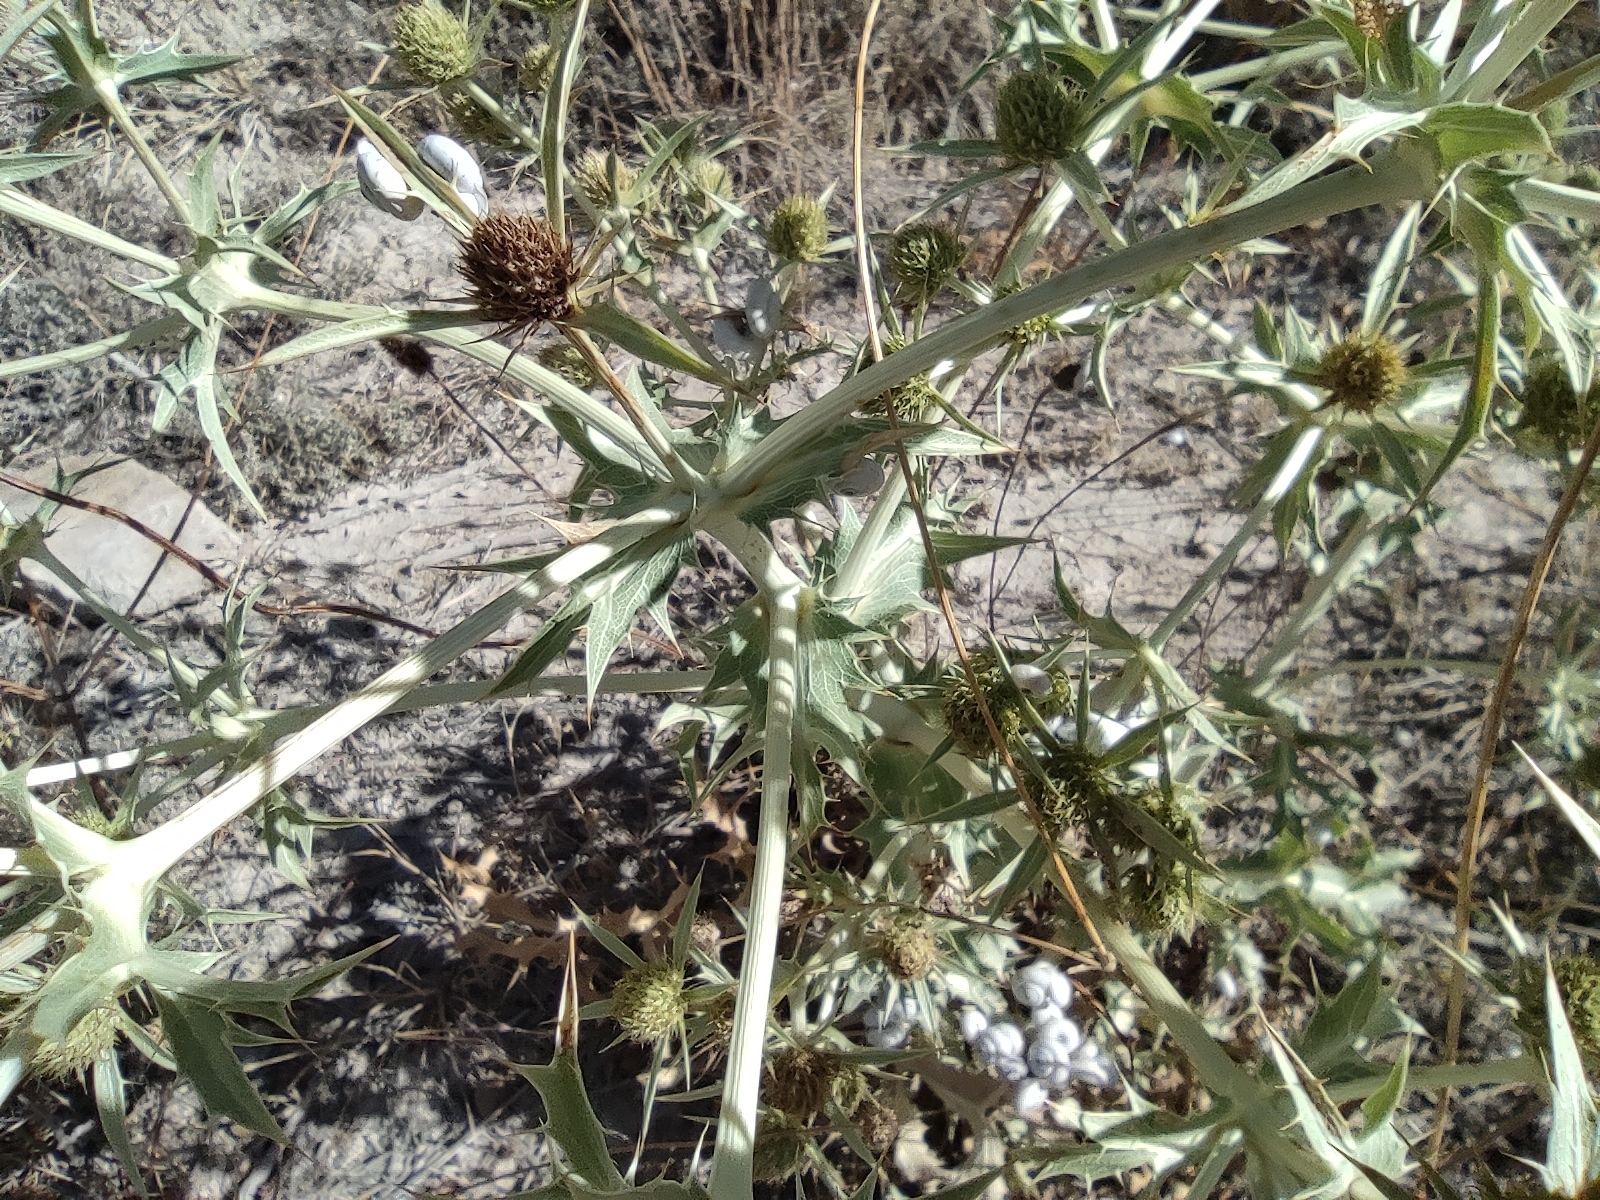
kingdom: Plantae
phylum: Tracheophyta
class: Magnoliopsida
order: Apiales
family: Apiaceae
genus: Eryngium
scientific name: Eryngium campestre
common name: Field eryngo
